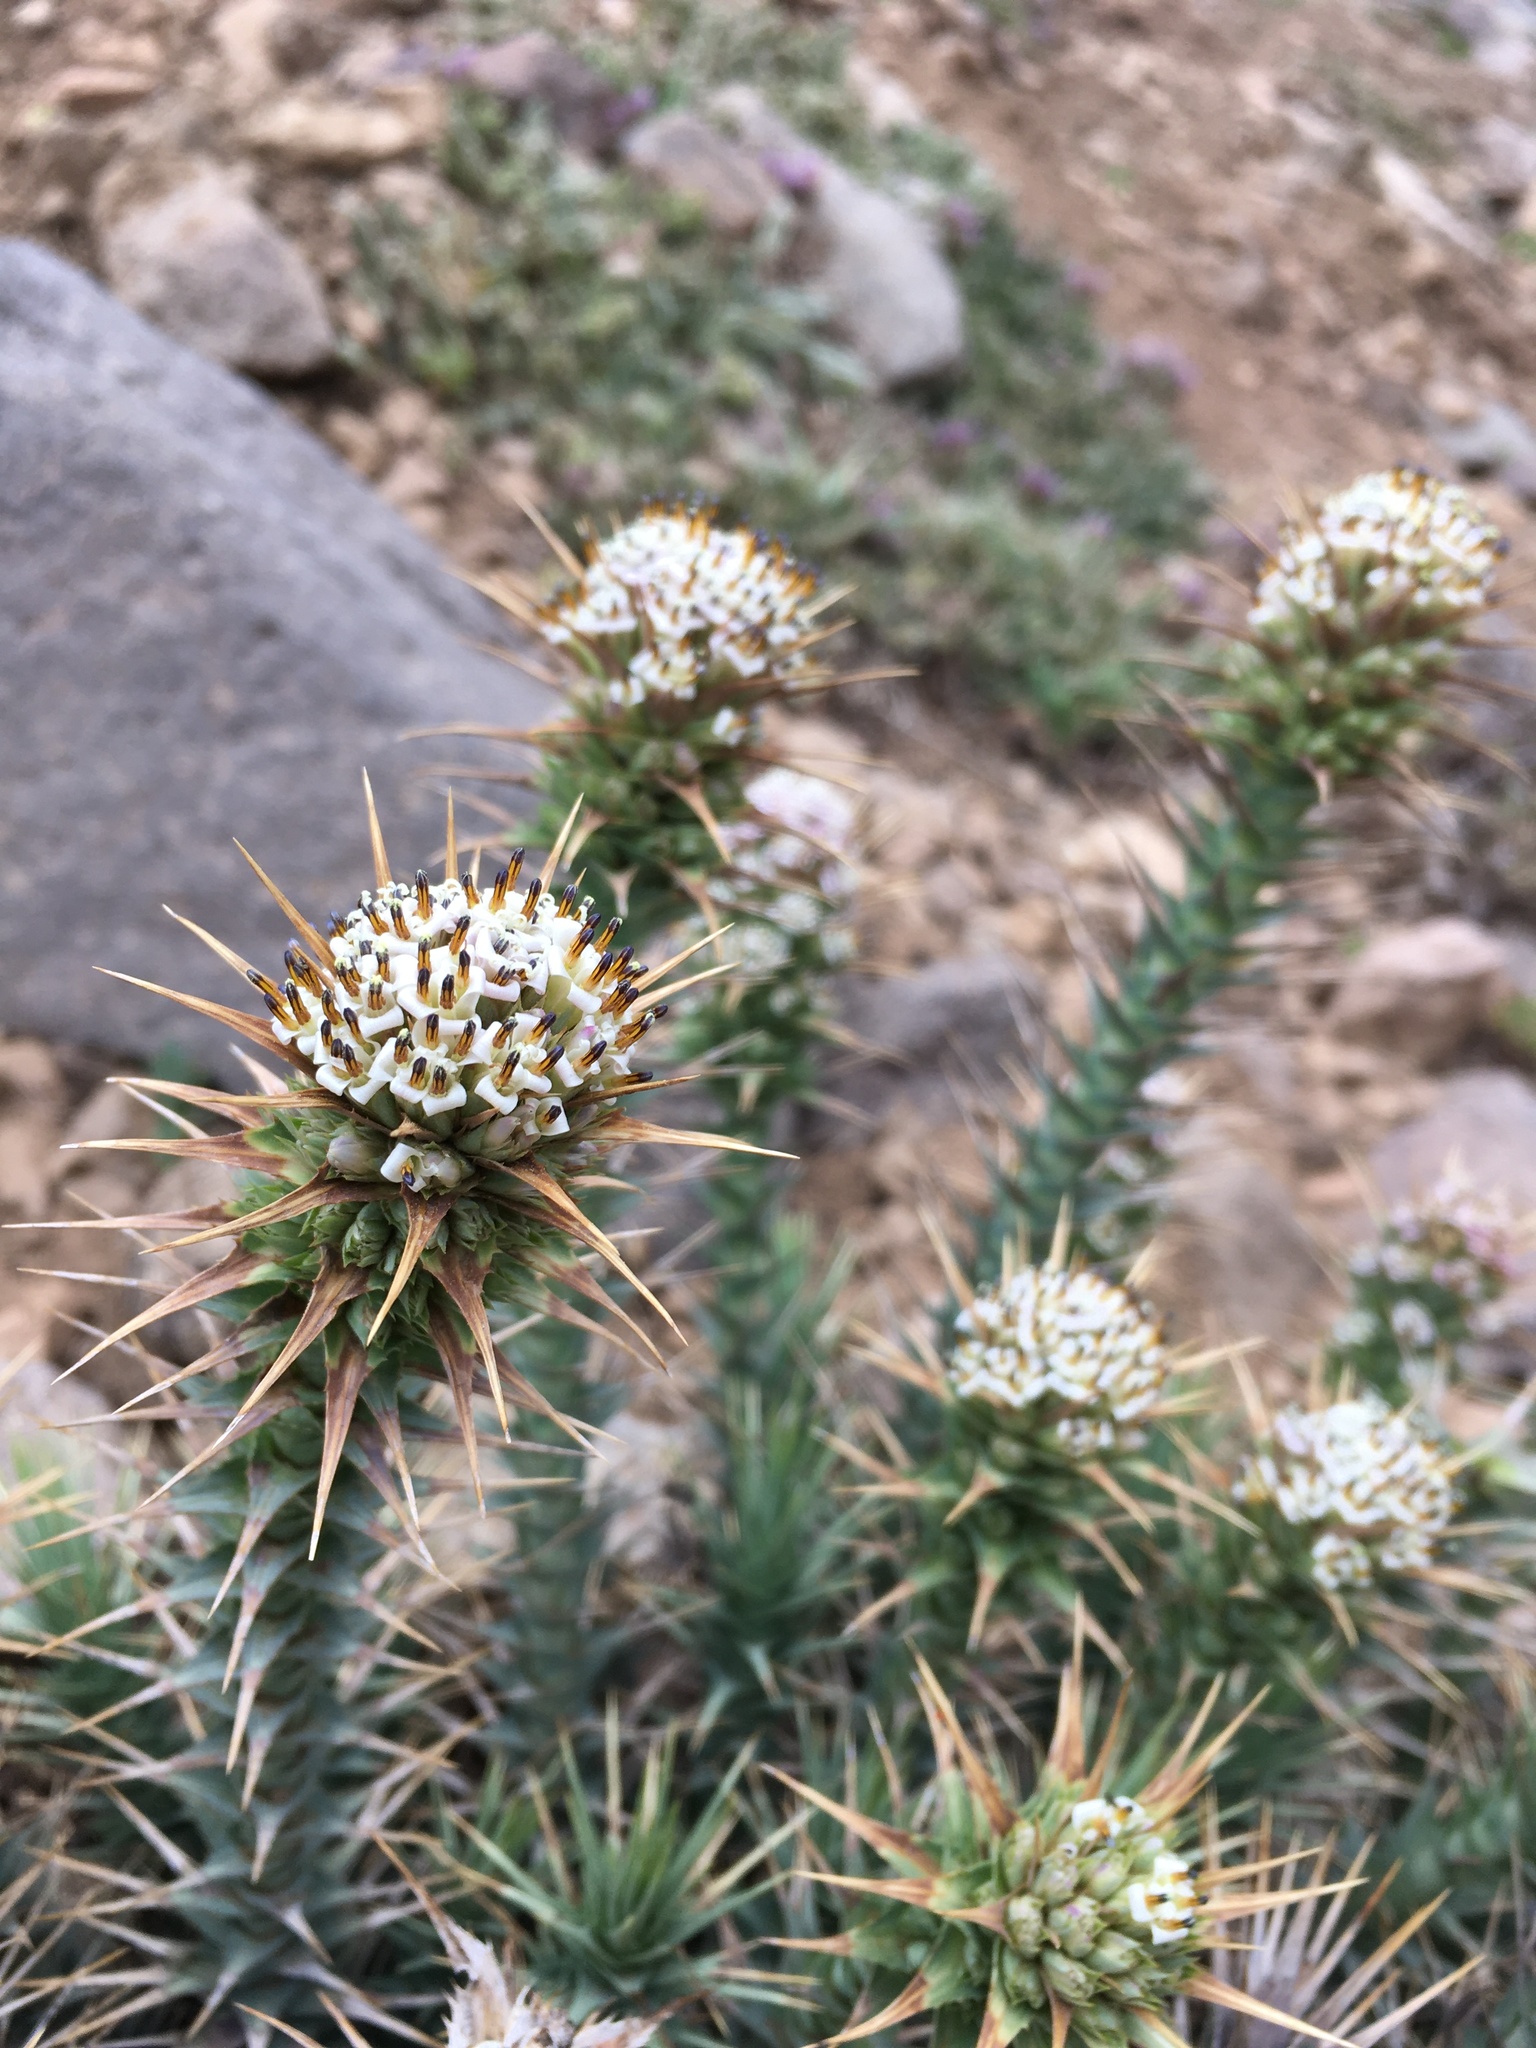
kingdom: Plantae
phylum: Tracheophyta
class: Magnoliopsida
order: Asterales
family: Asteraceae
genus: Nassauvia
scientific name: Nassauvia cumingii
